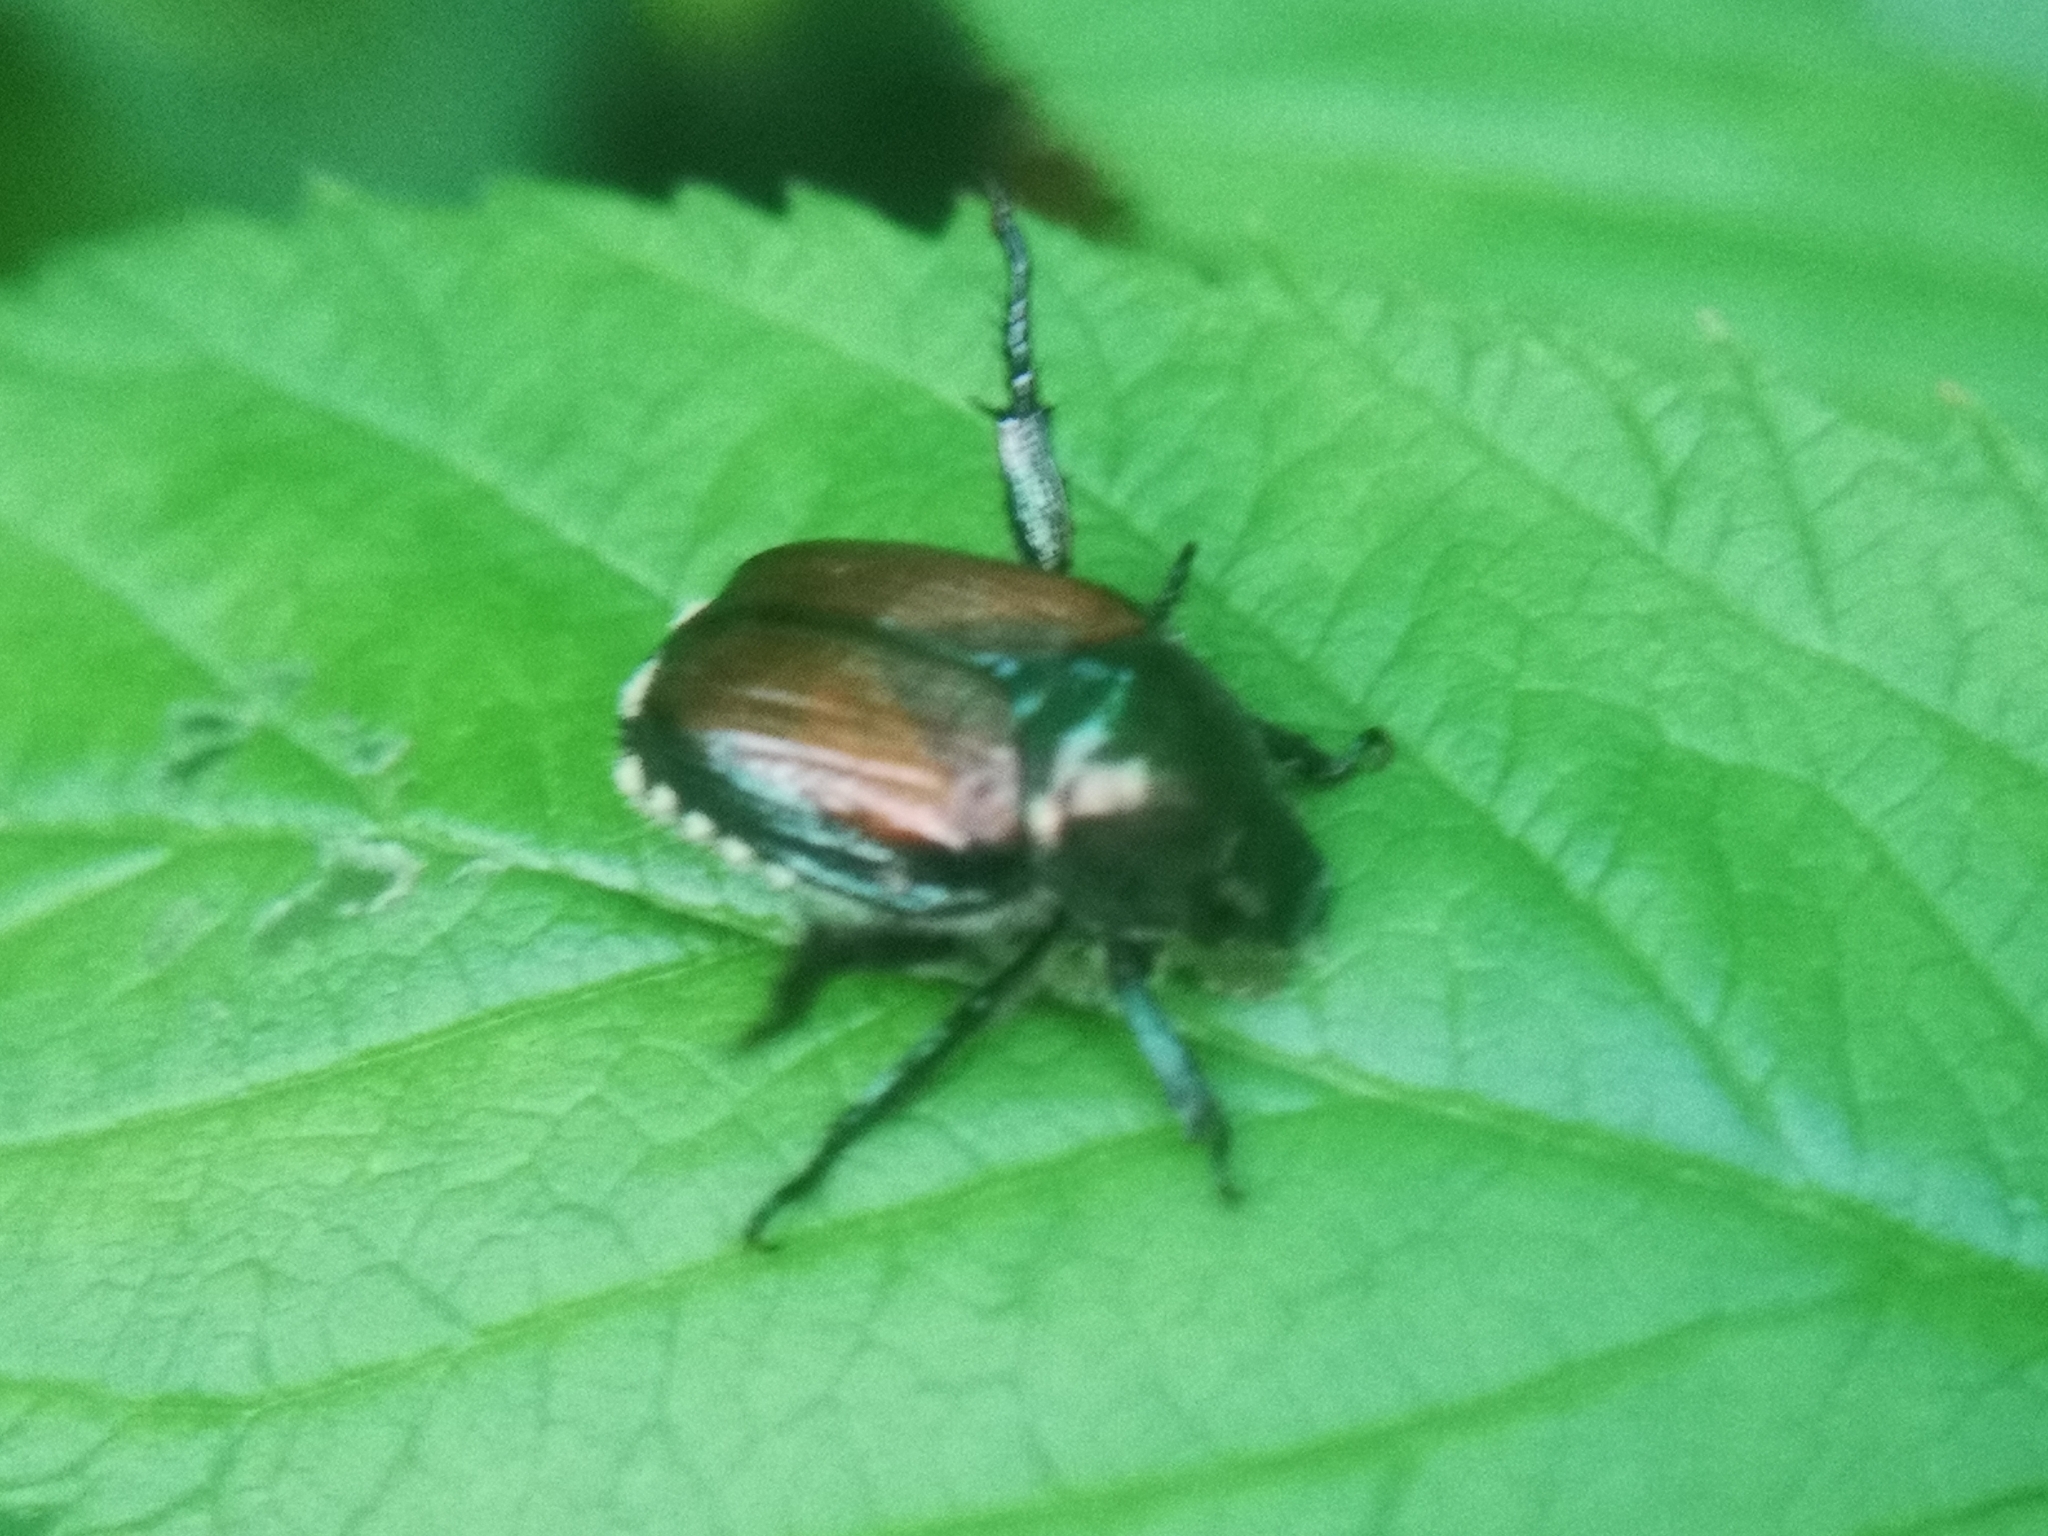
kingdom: Animalia
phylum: Arthropoda
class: Insecta
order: Coleoptera
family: Scarabaeidae
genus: Popillia
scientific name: Popillia japonica
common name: Japanese beetle
